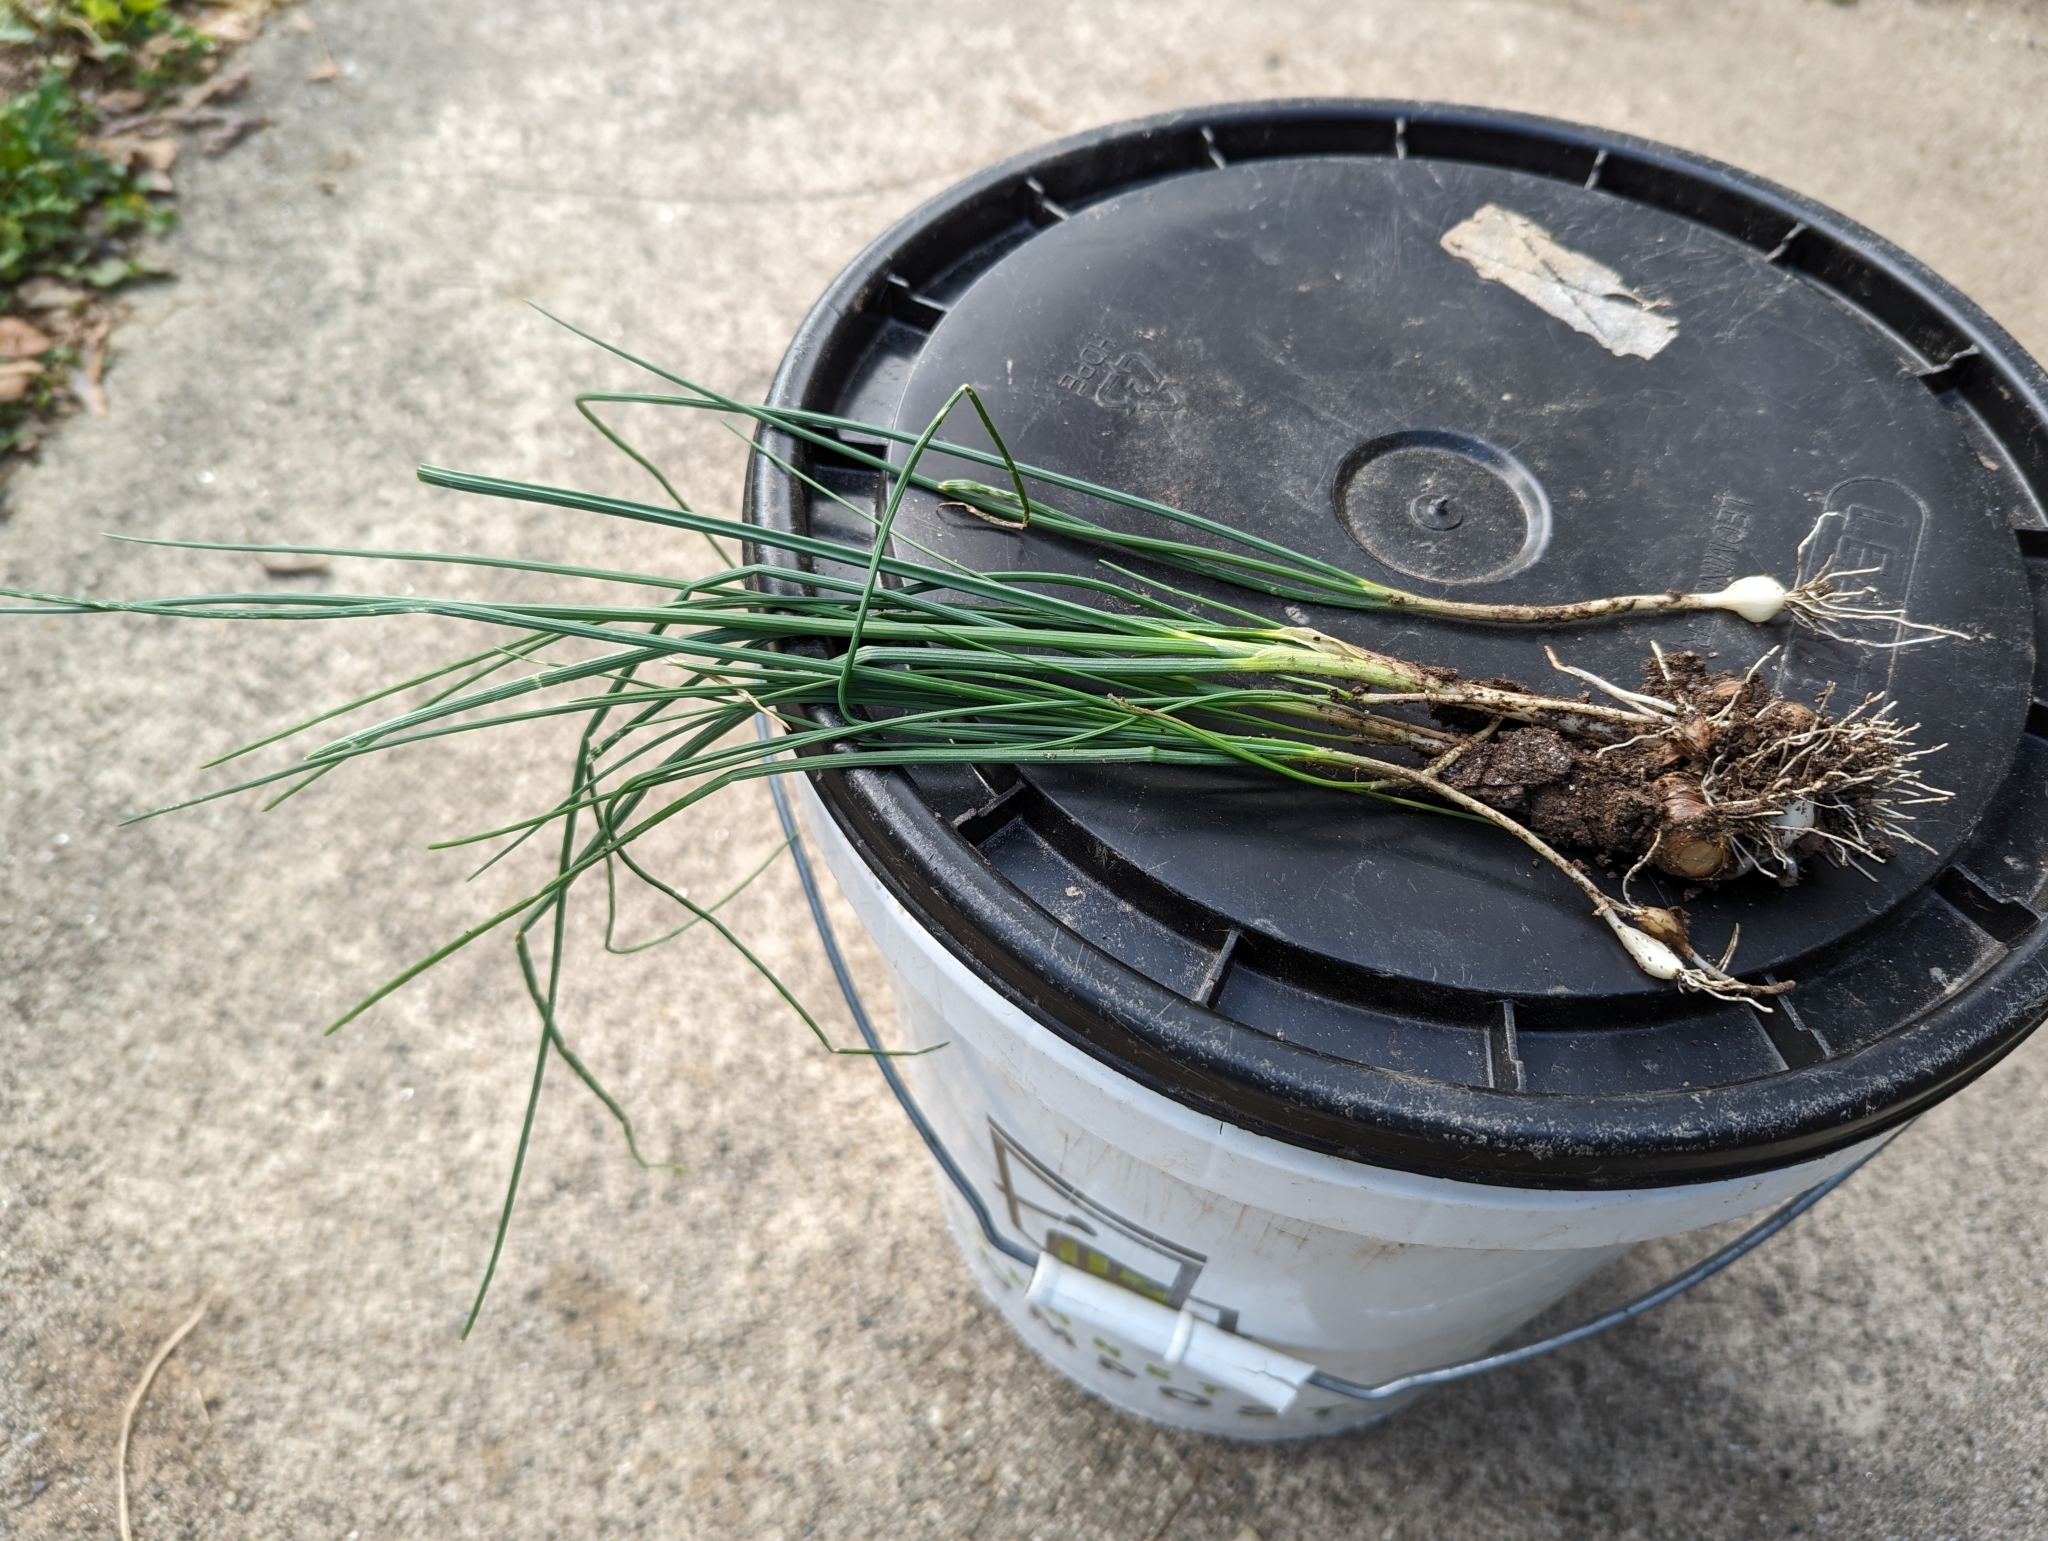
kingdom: Plantae
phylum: Tracheophyta
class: Liliopsida
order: Asparagales
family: Amaryllidaceae
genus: Allium
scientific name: Allium vineale
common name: Crow garlic
